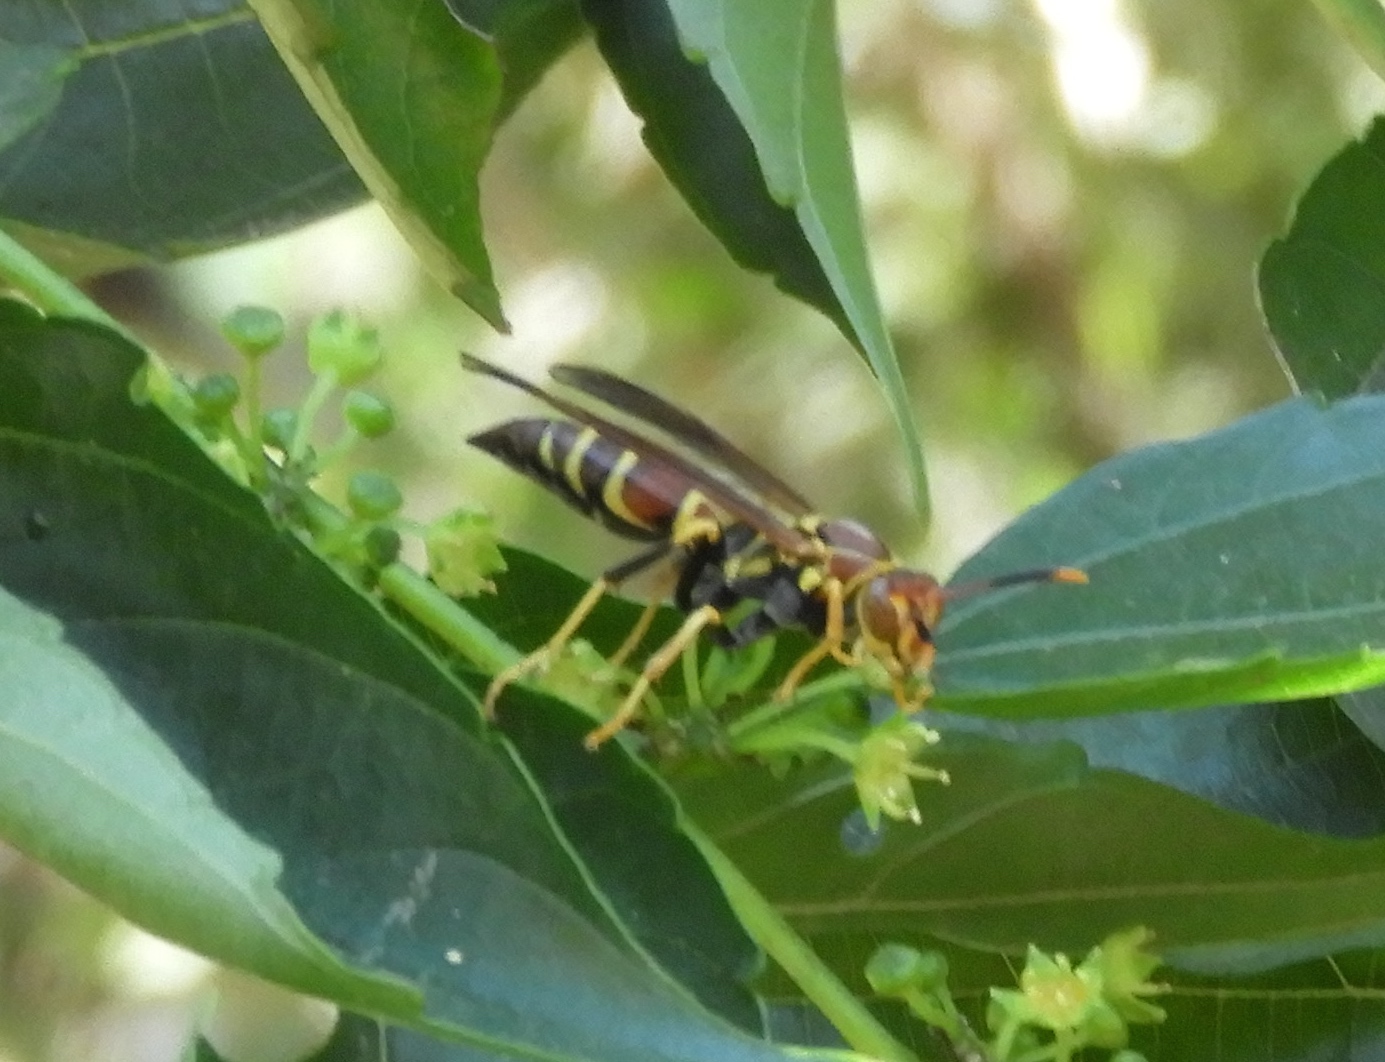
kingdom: Animalia
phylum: Arthropoda
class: Insecta
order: Hymenoptera
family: Eumenidae
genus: Polistes
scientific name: Polistes instabilis
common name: Unstable paper wasp
